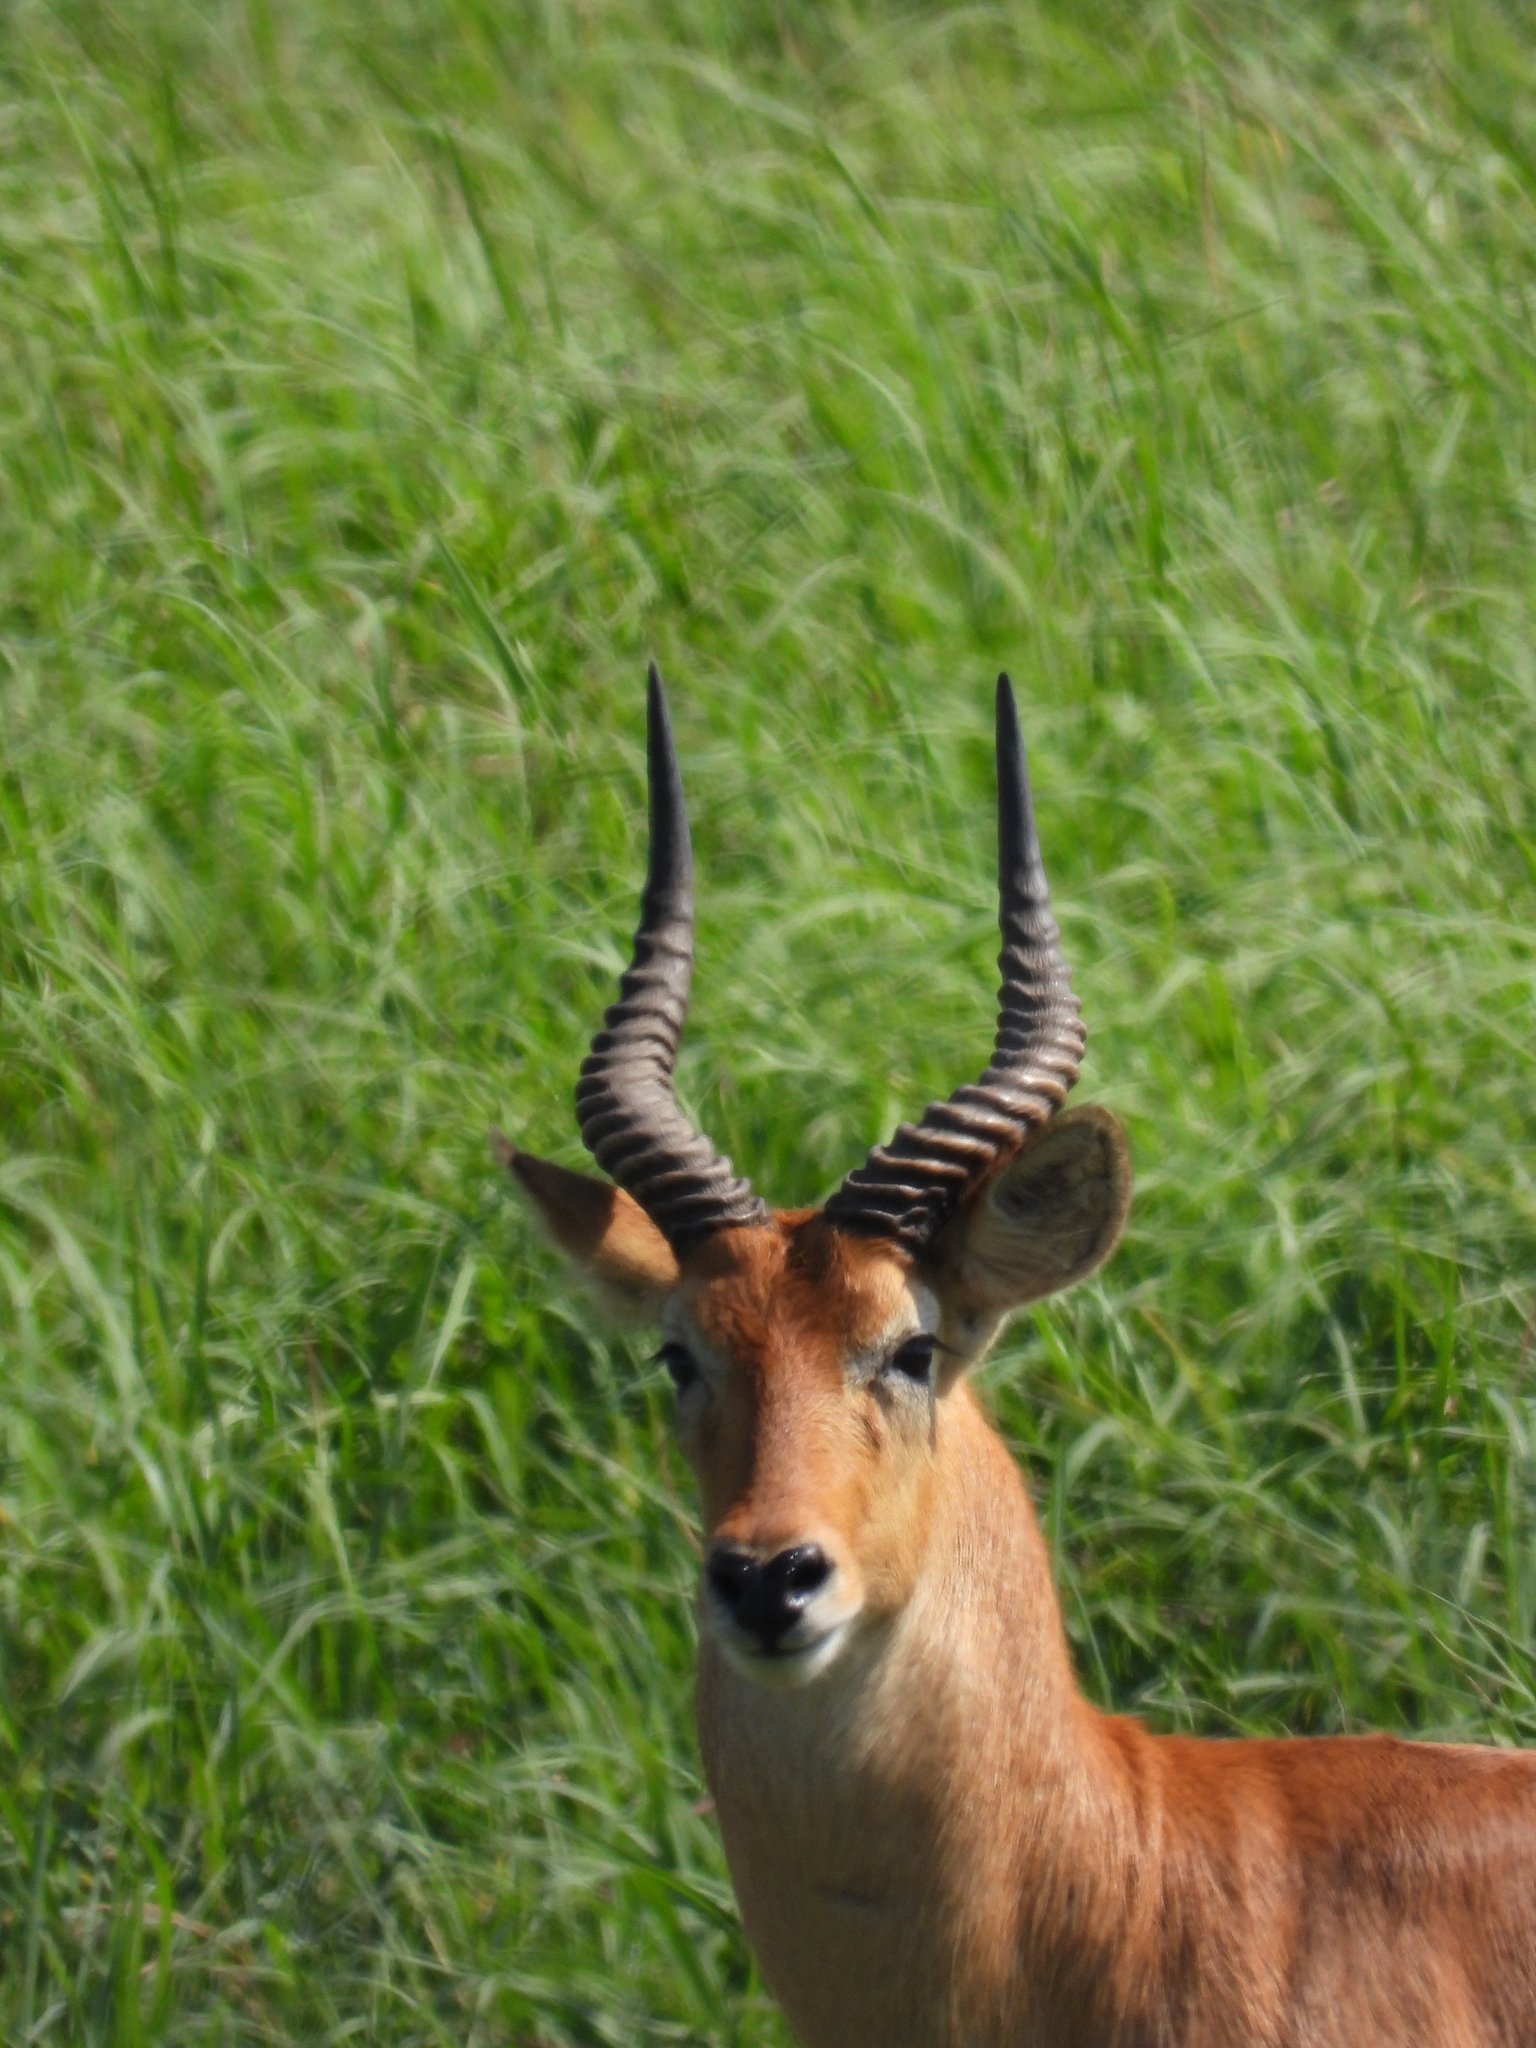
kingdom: Animalia
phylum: Chordata
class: Mammalia
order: Artiodactyla
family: Bovidae
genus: Kobus
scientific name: Kobus vardonii
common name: Puku
